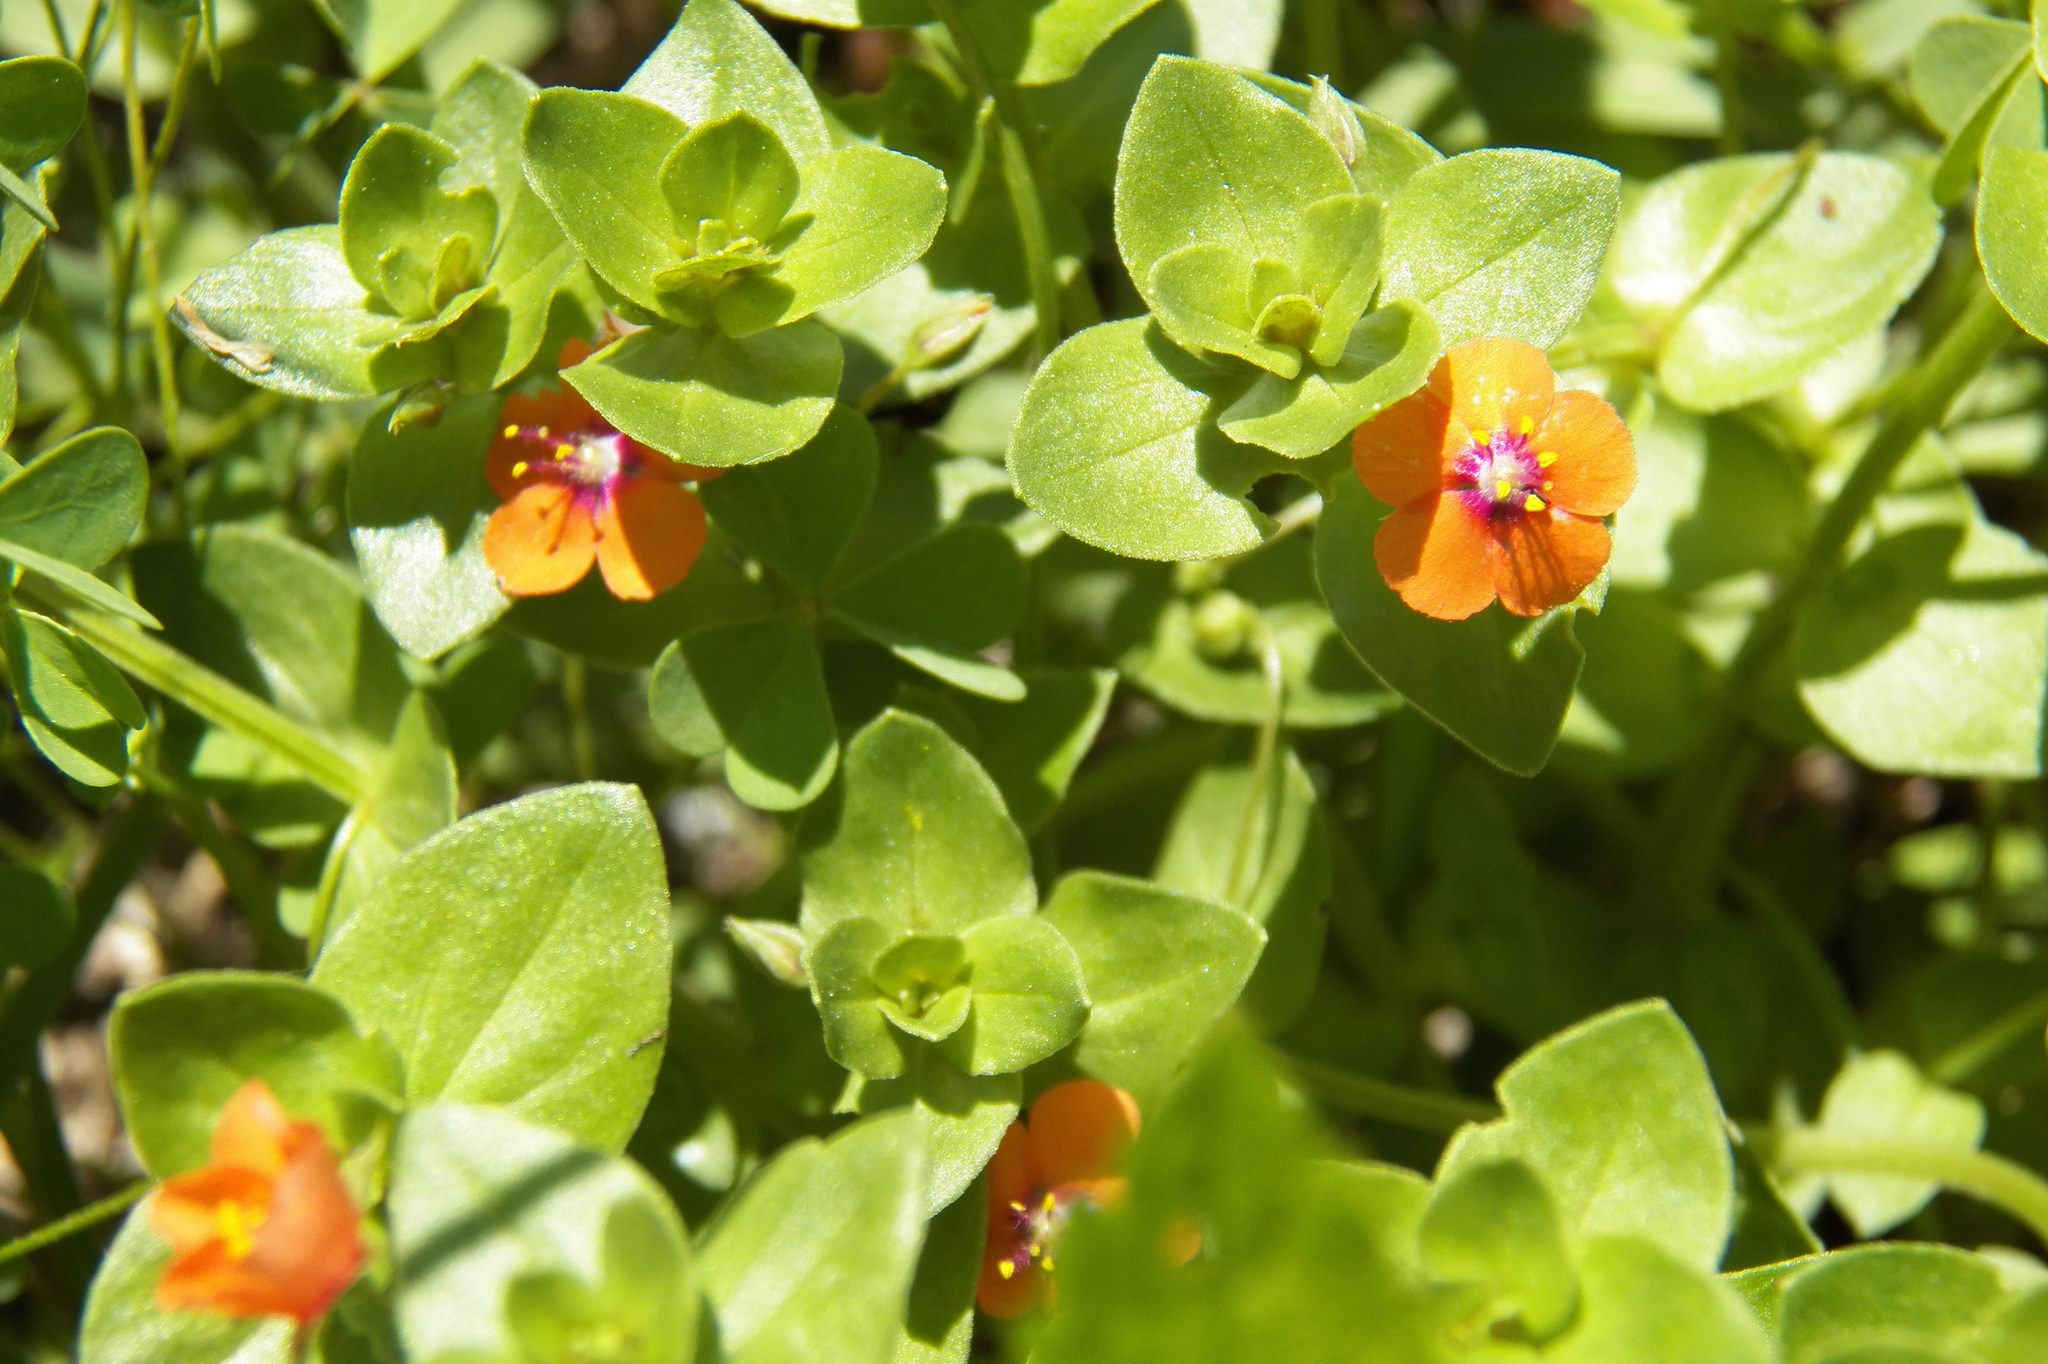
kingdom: Plantae
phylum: Tracheophyta
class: Magnoliopsida
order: Ericales
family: Primulaceae
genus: Lysimachia
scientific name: Lysimachia arvensis
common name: Scarlet pimpernel
